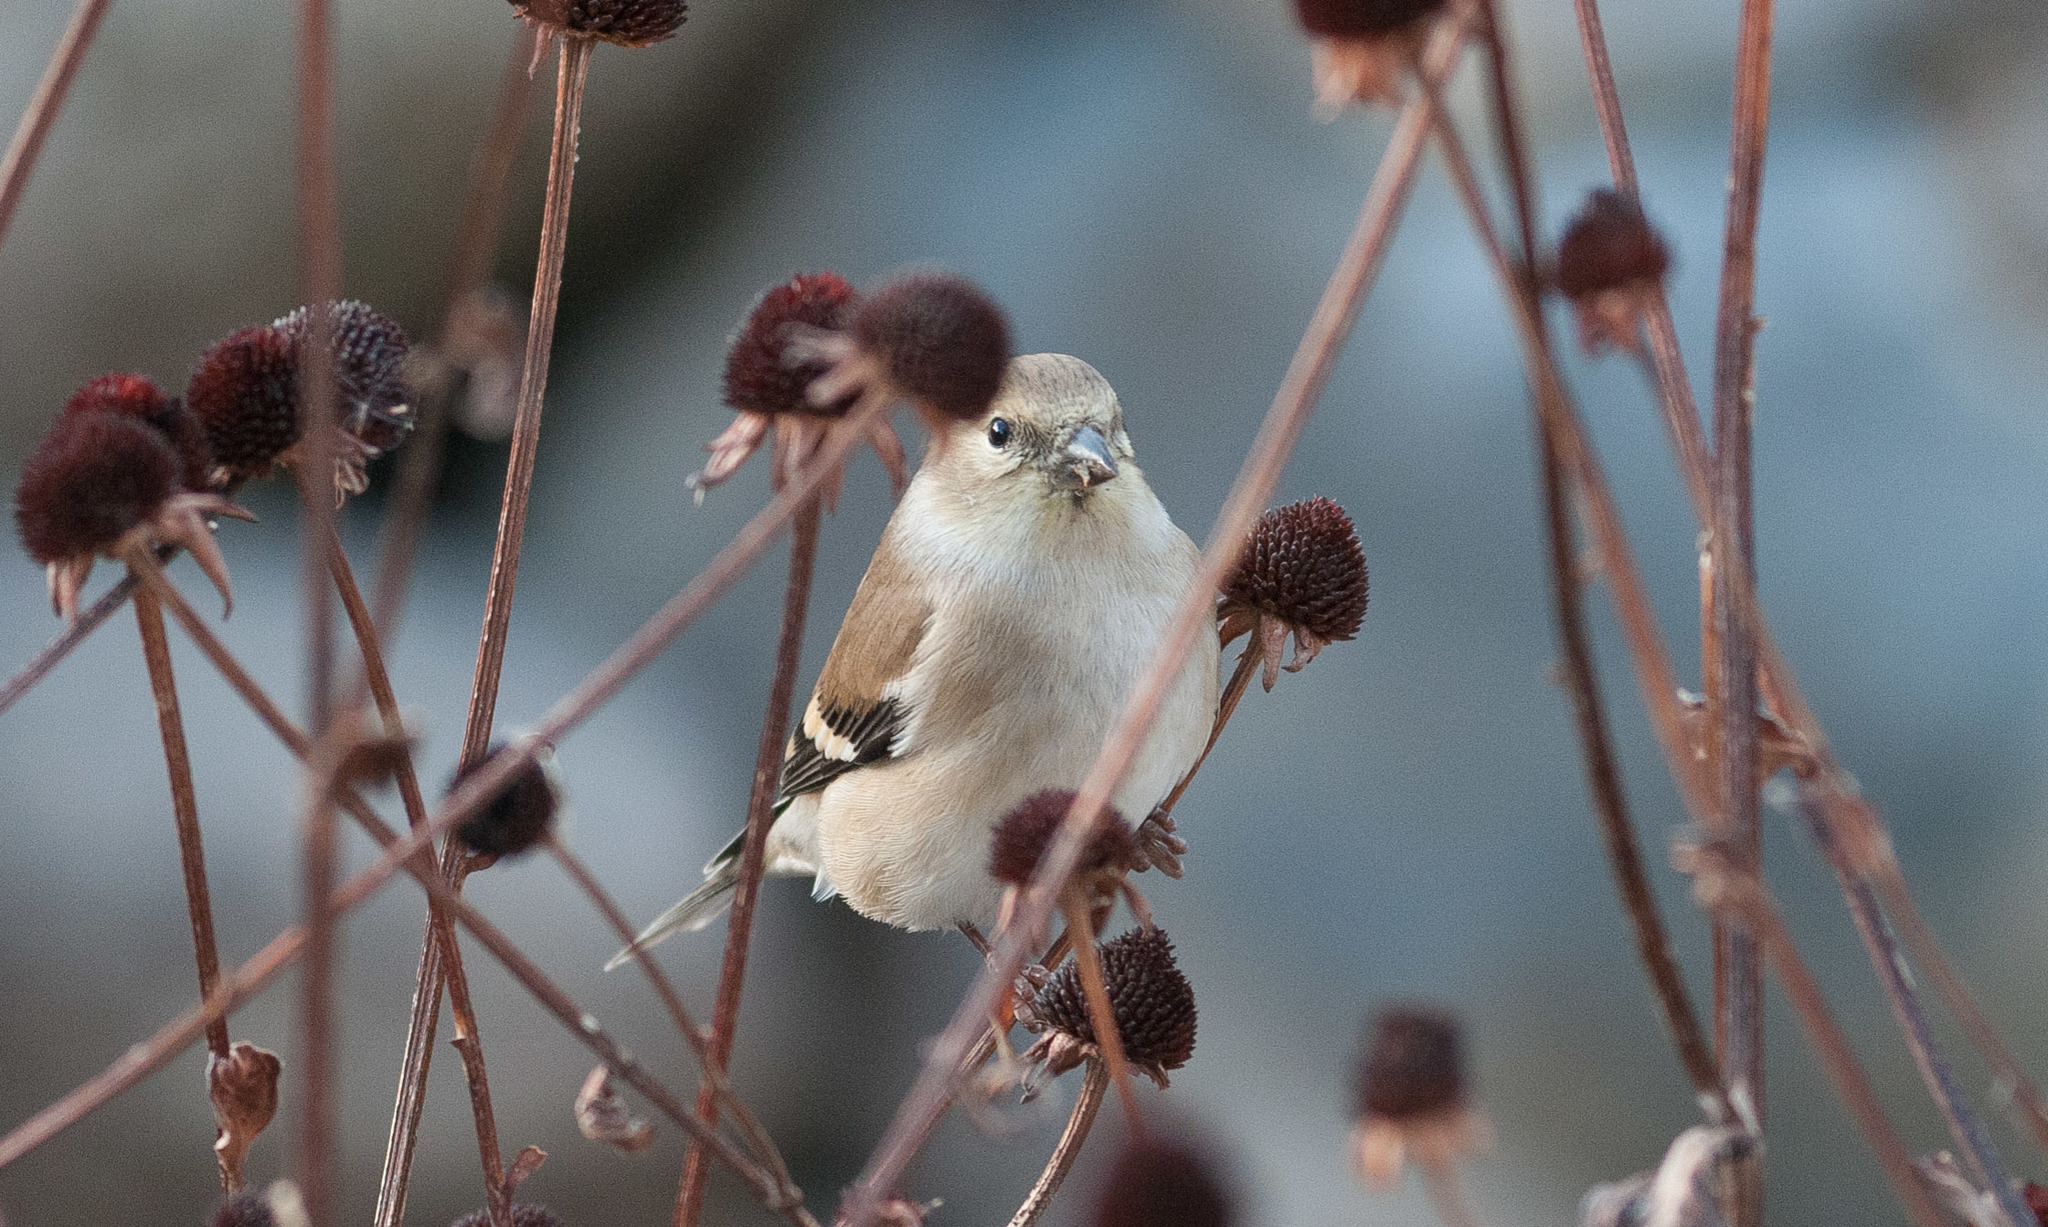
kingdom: Animalia
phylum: Chordata
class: Aves
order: Passeriformes
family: Fringillidae
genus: Spinus
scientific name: Spinus tristis
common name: American goldfinch
